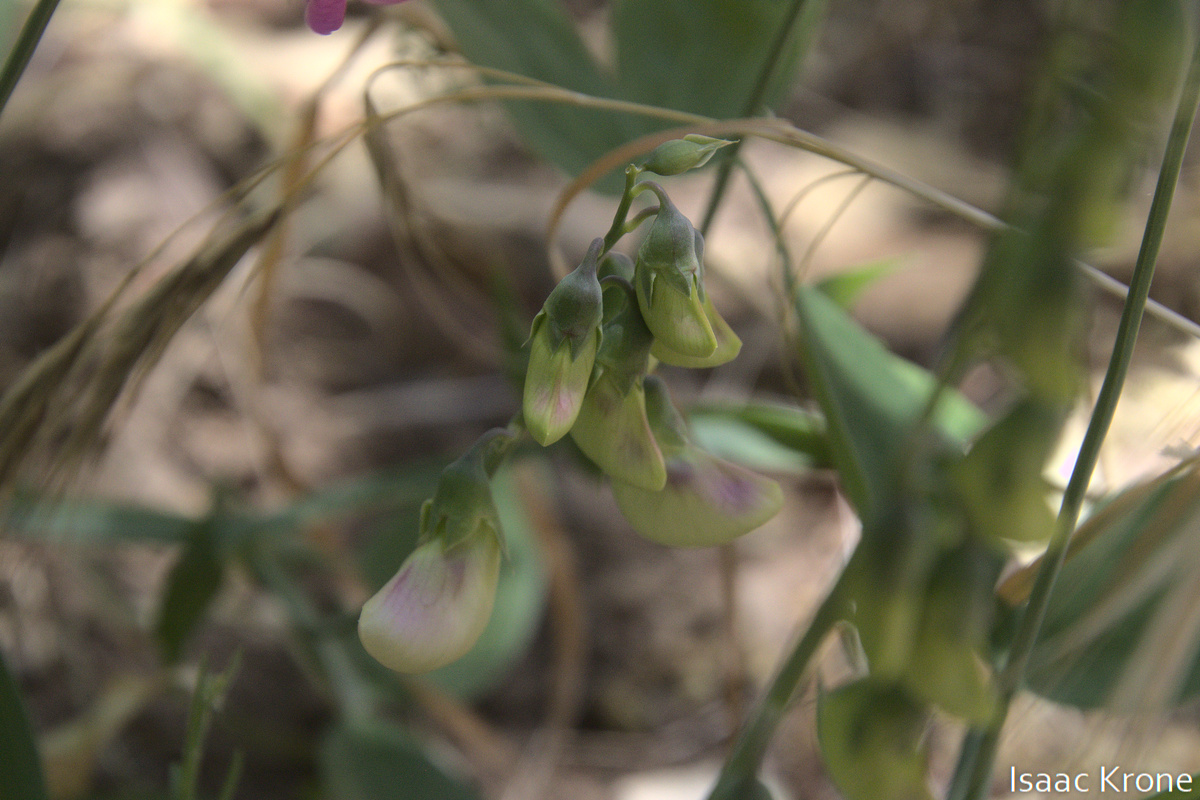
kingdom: Plantae
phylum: Tracheophyta
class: Magnoliopsida
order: Fabales
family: Fabaceae
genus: Lathyrus
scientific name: Lathyrus latifolius
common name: Perennial pea
